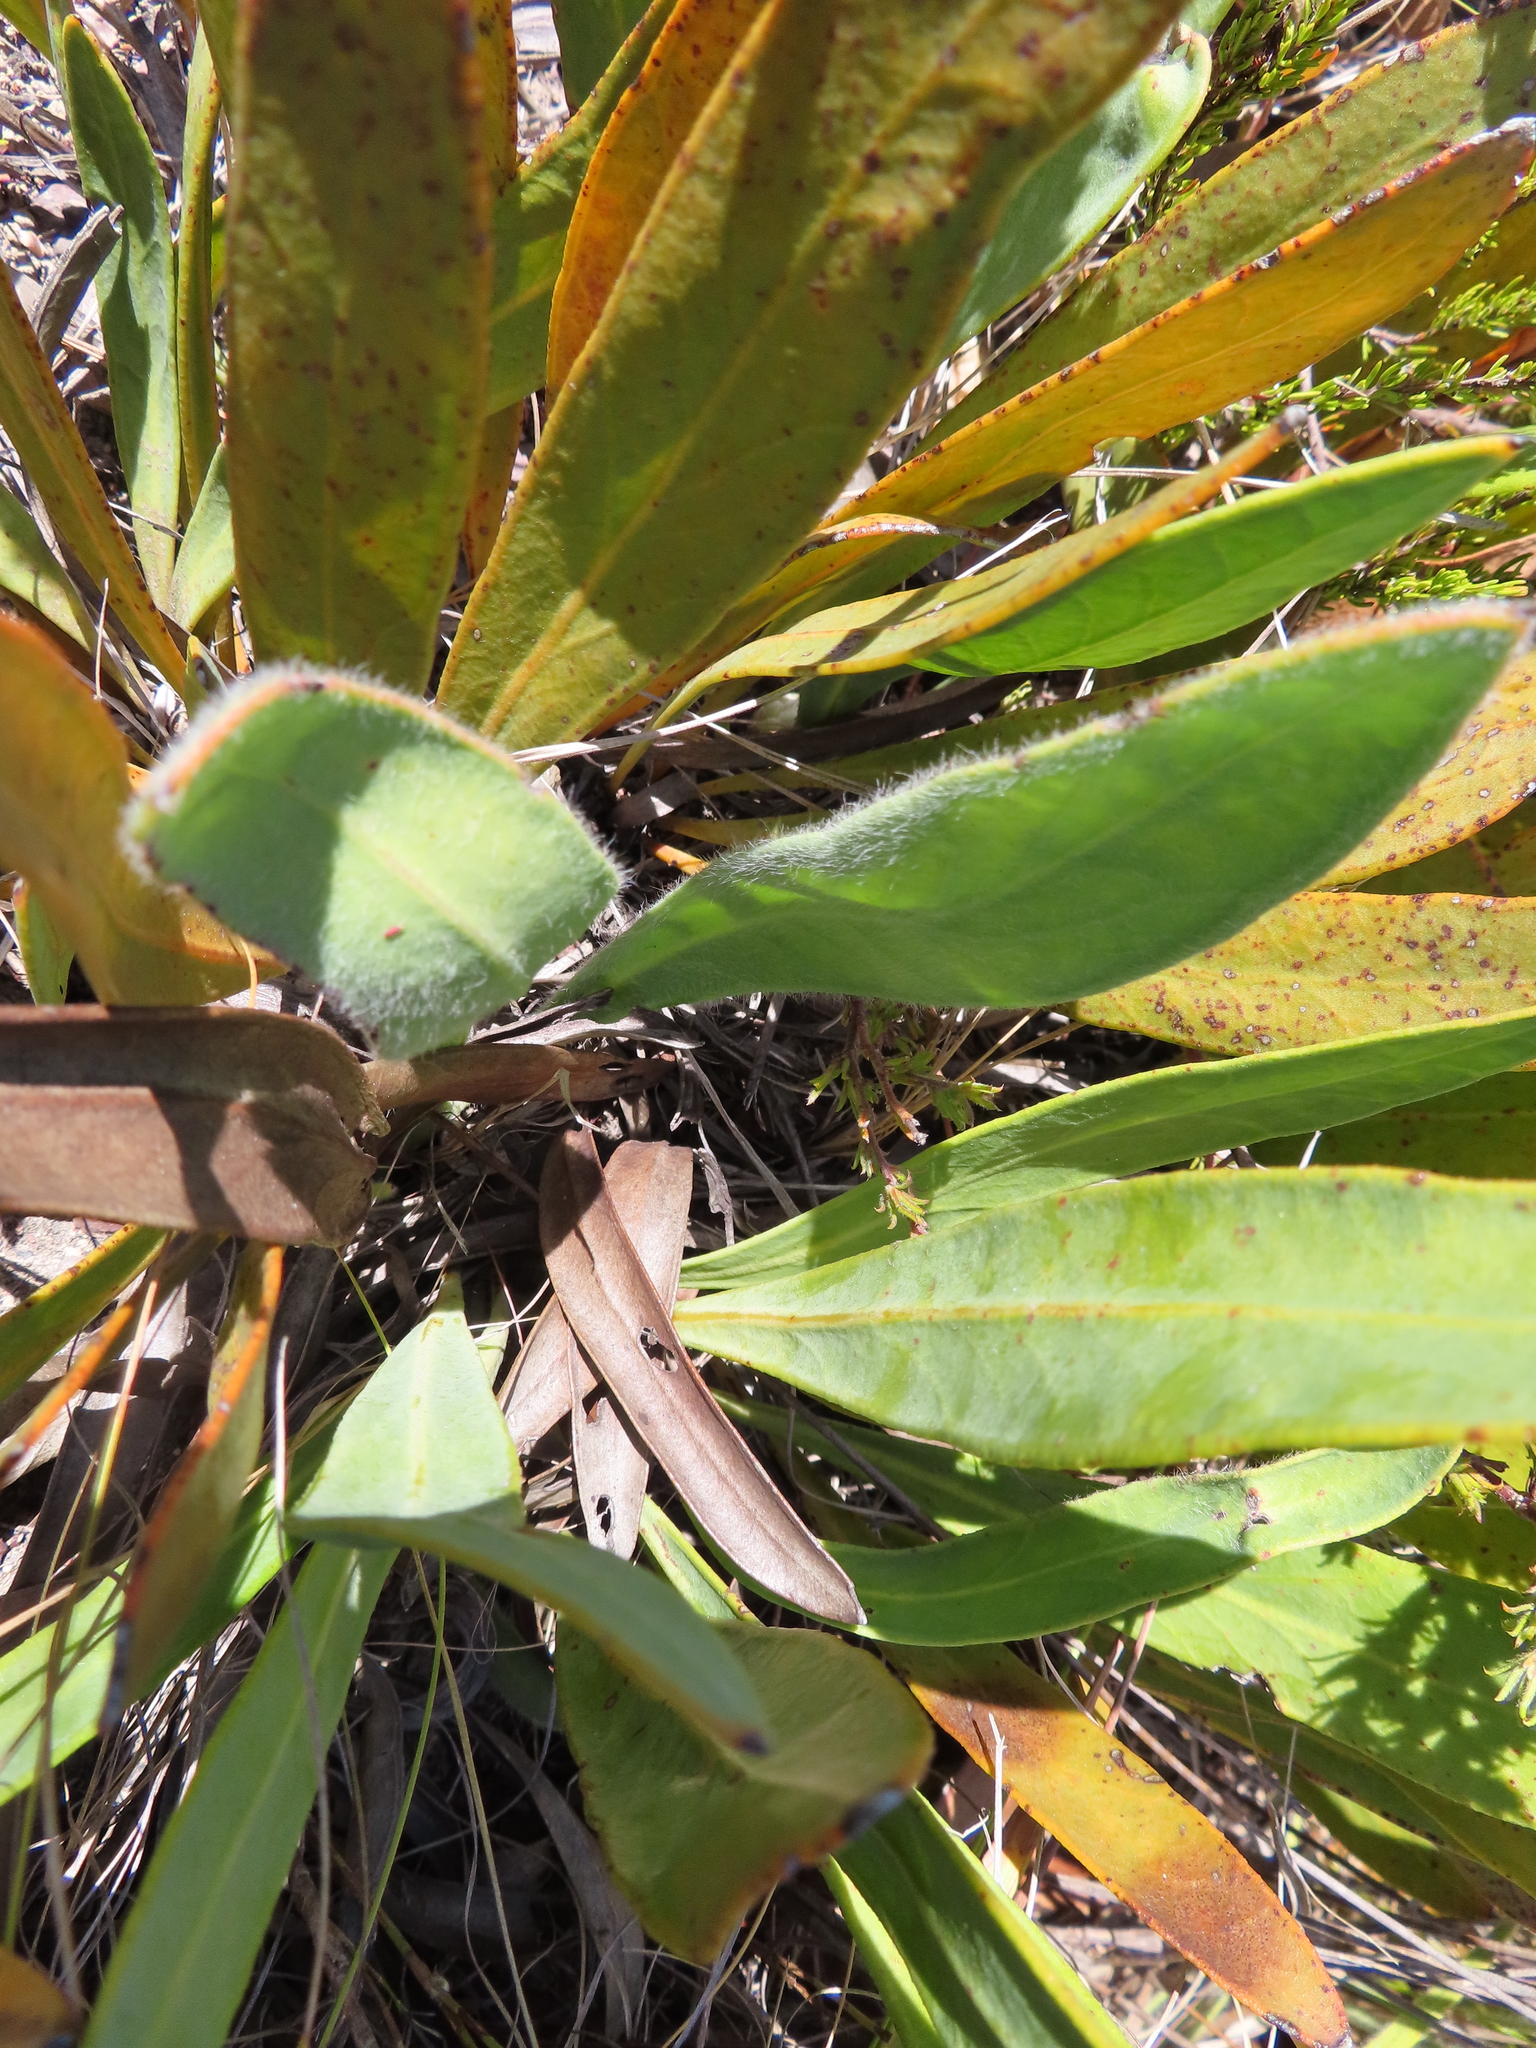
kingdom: Plantae
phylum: Tracheophyta
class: Magnoliopsida
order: Proteales
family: Proteaceae
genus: Protea
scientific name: Protea scabra
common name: Sandpaper-leaf sugarbush
